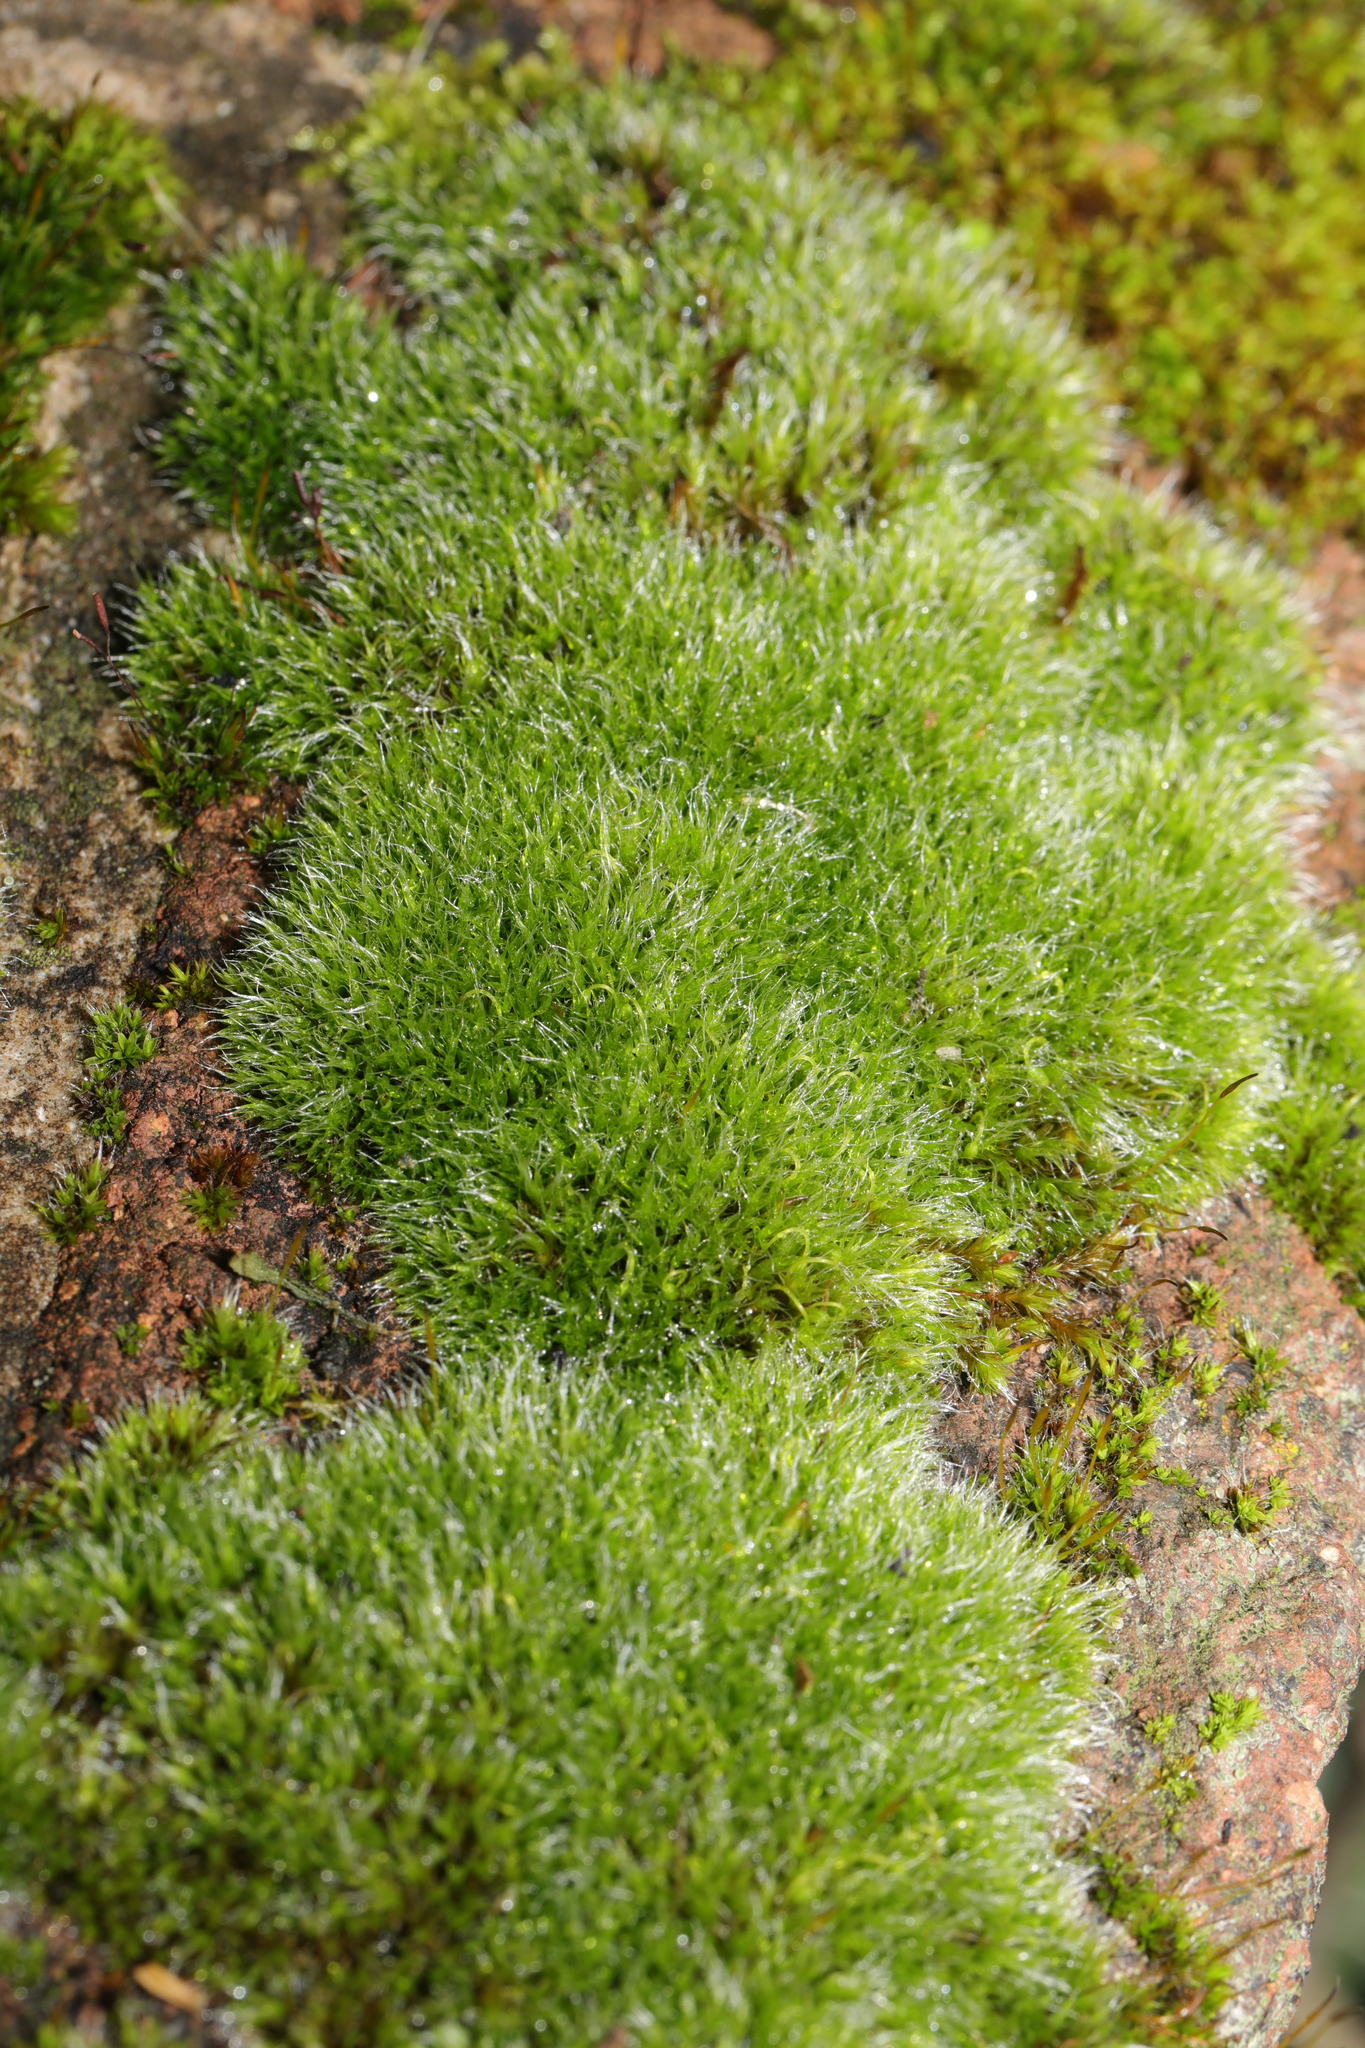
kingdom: Plantae
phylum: Bryophyta
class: Bryopsida
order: Grimmiales
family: Grimmiaceae
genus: Grimmia
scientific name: Grimmia pulvinata
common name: Grey-cushioned grimmia
